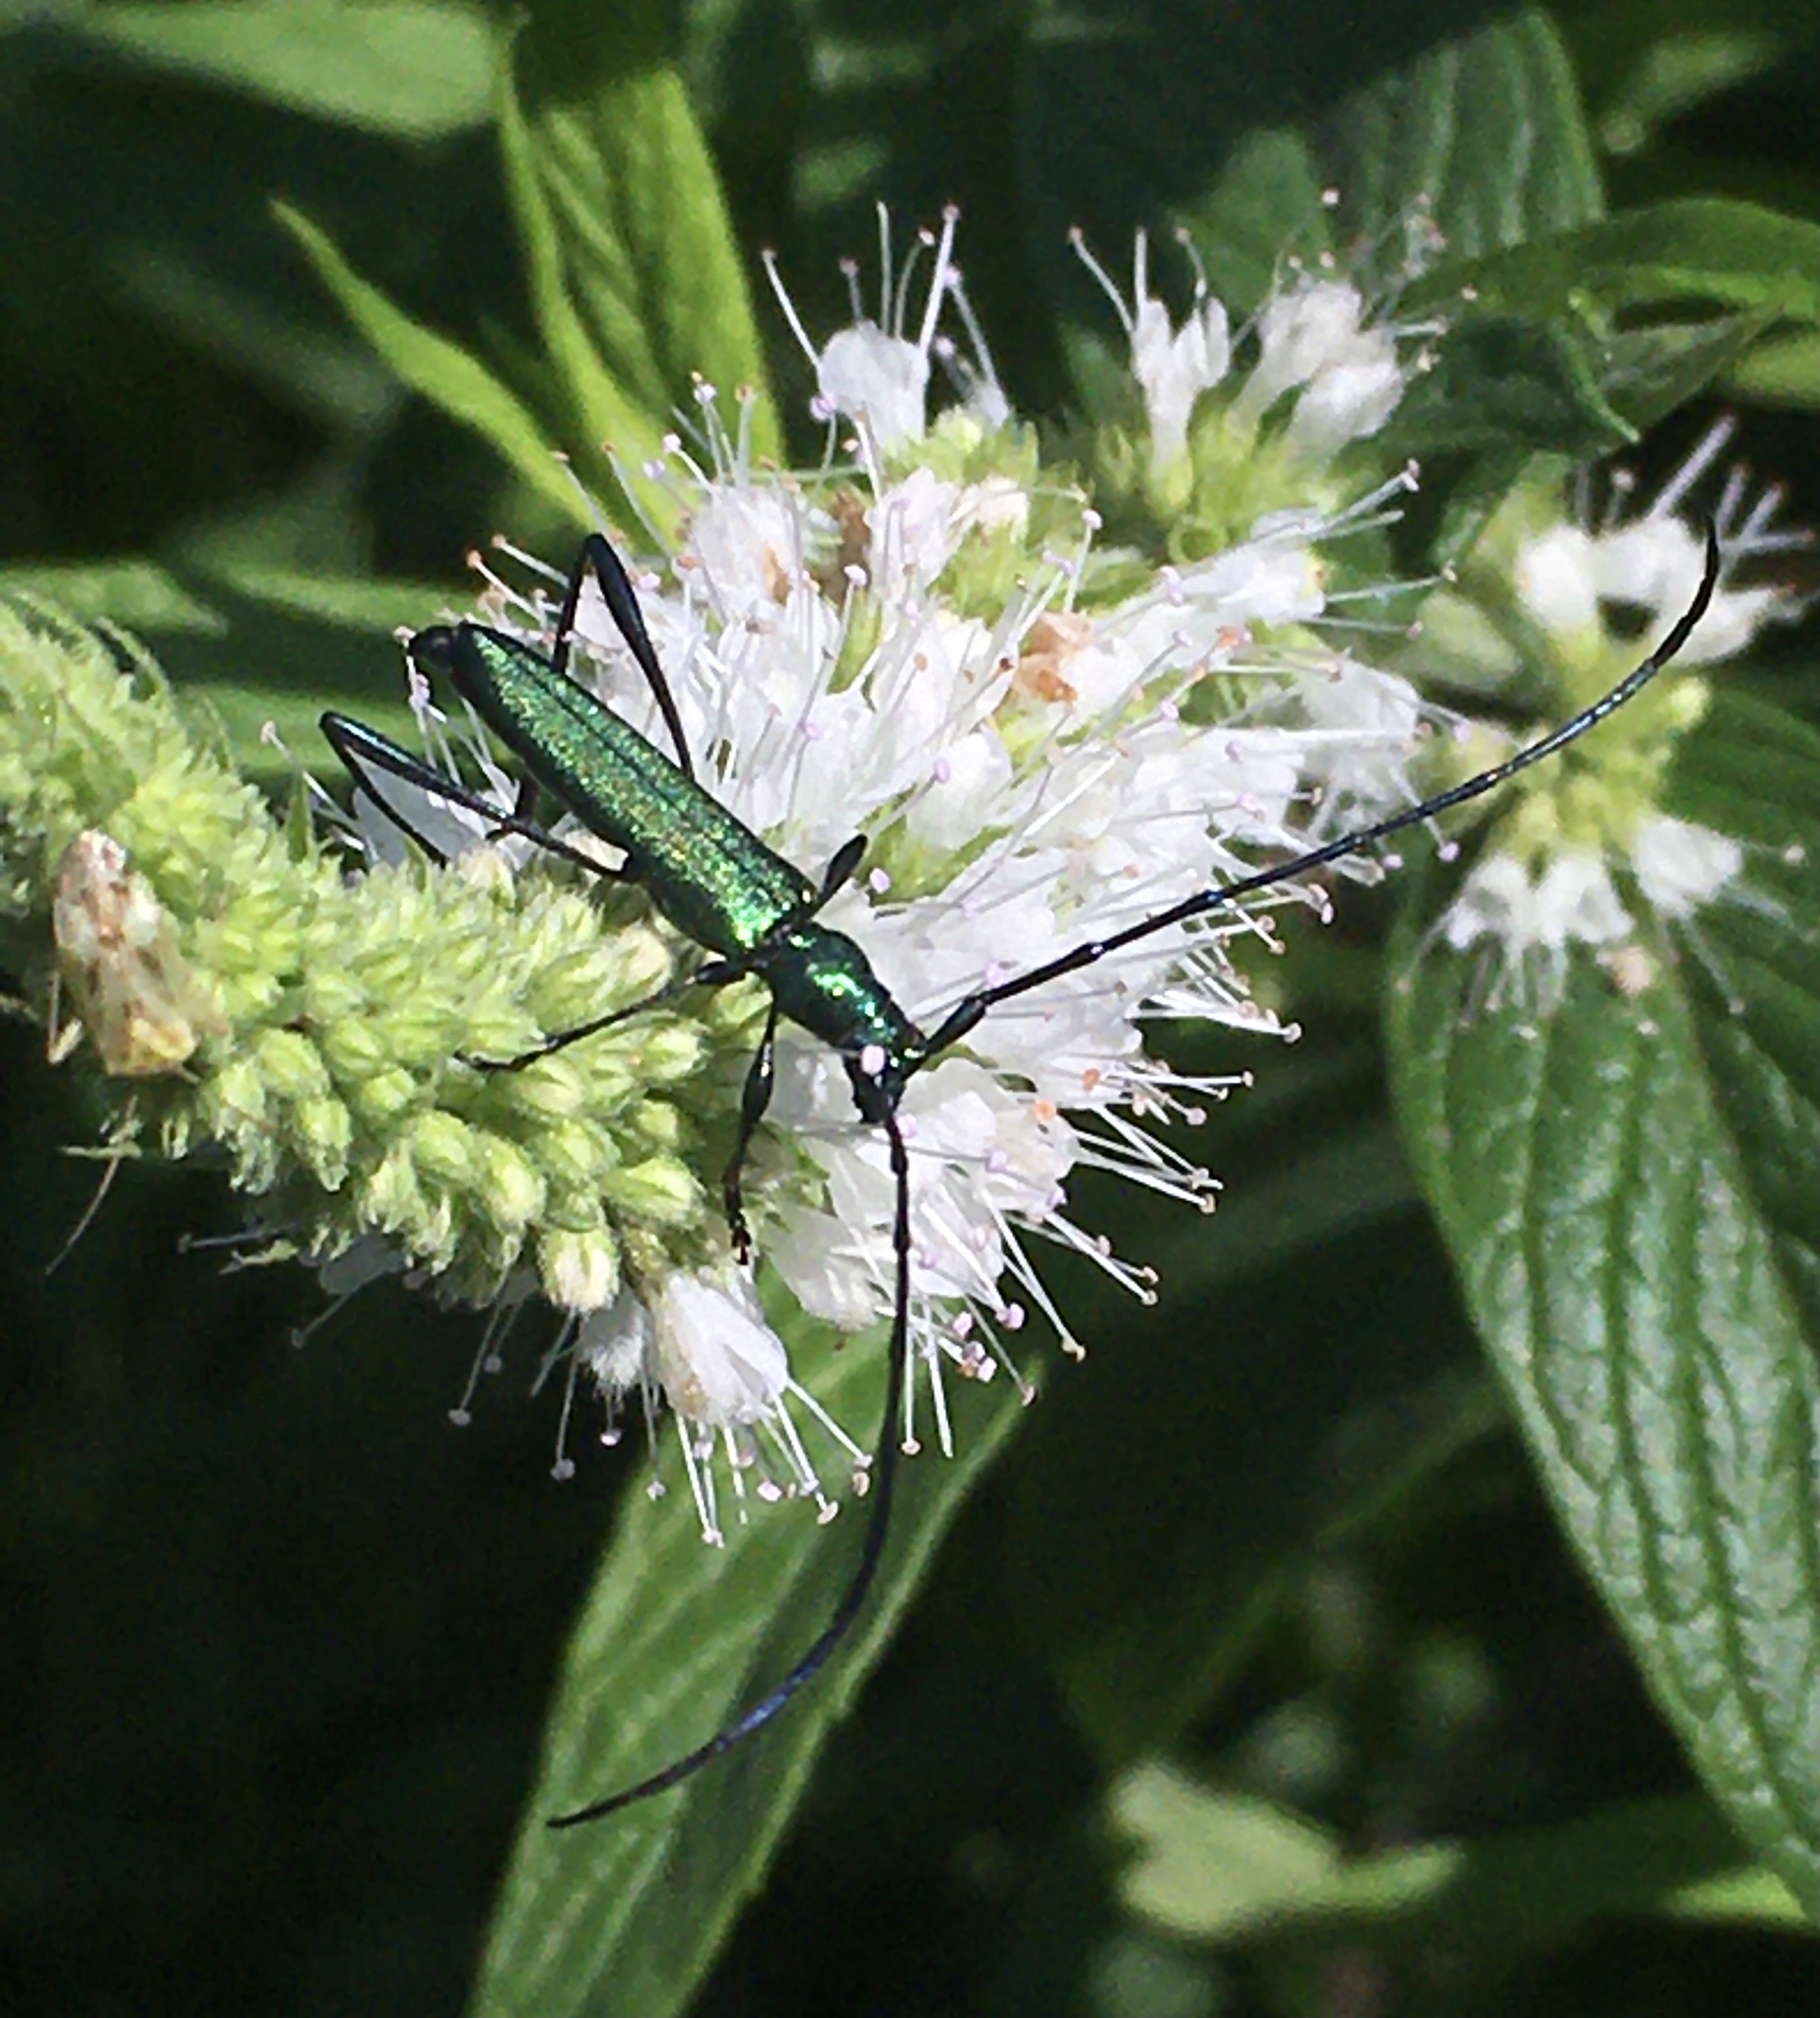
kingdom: Animalia
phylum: Arthropoda
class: Insecta
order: Coleoptera
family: Cerambycidae
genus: Promeces
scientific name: Promeces longipes
